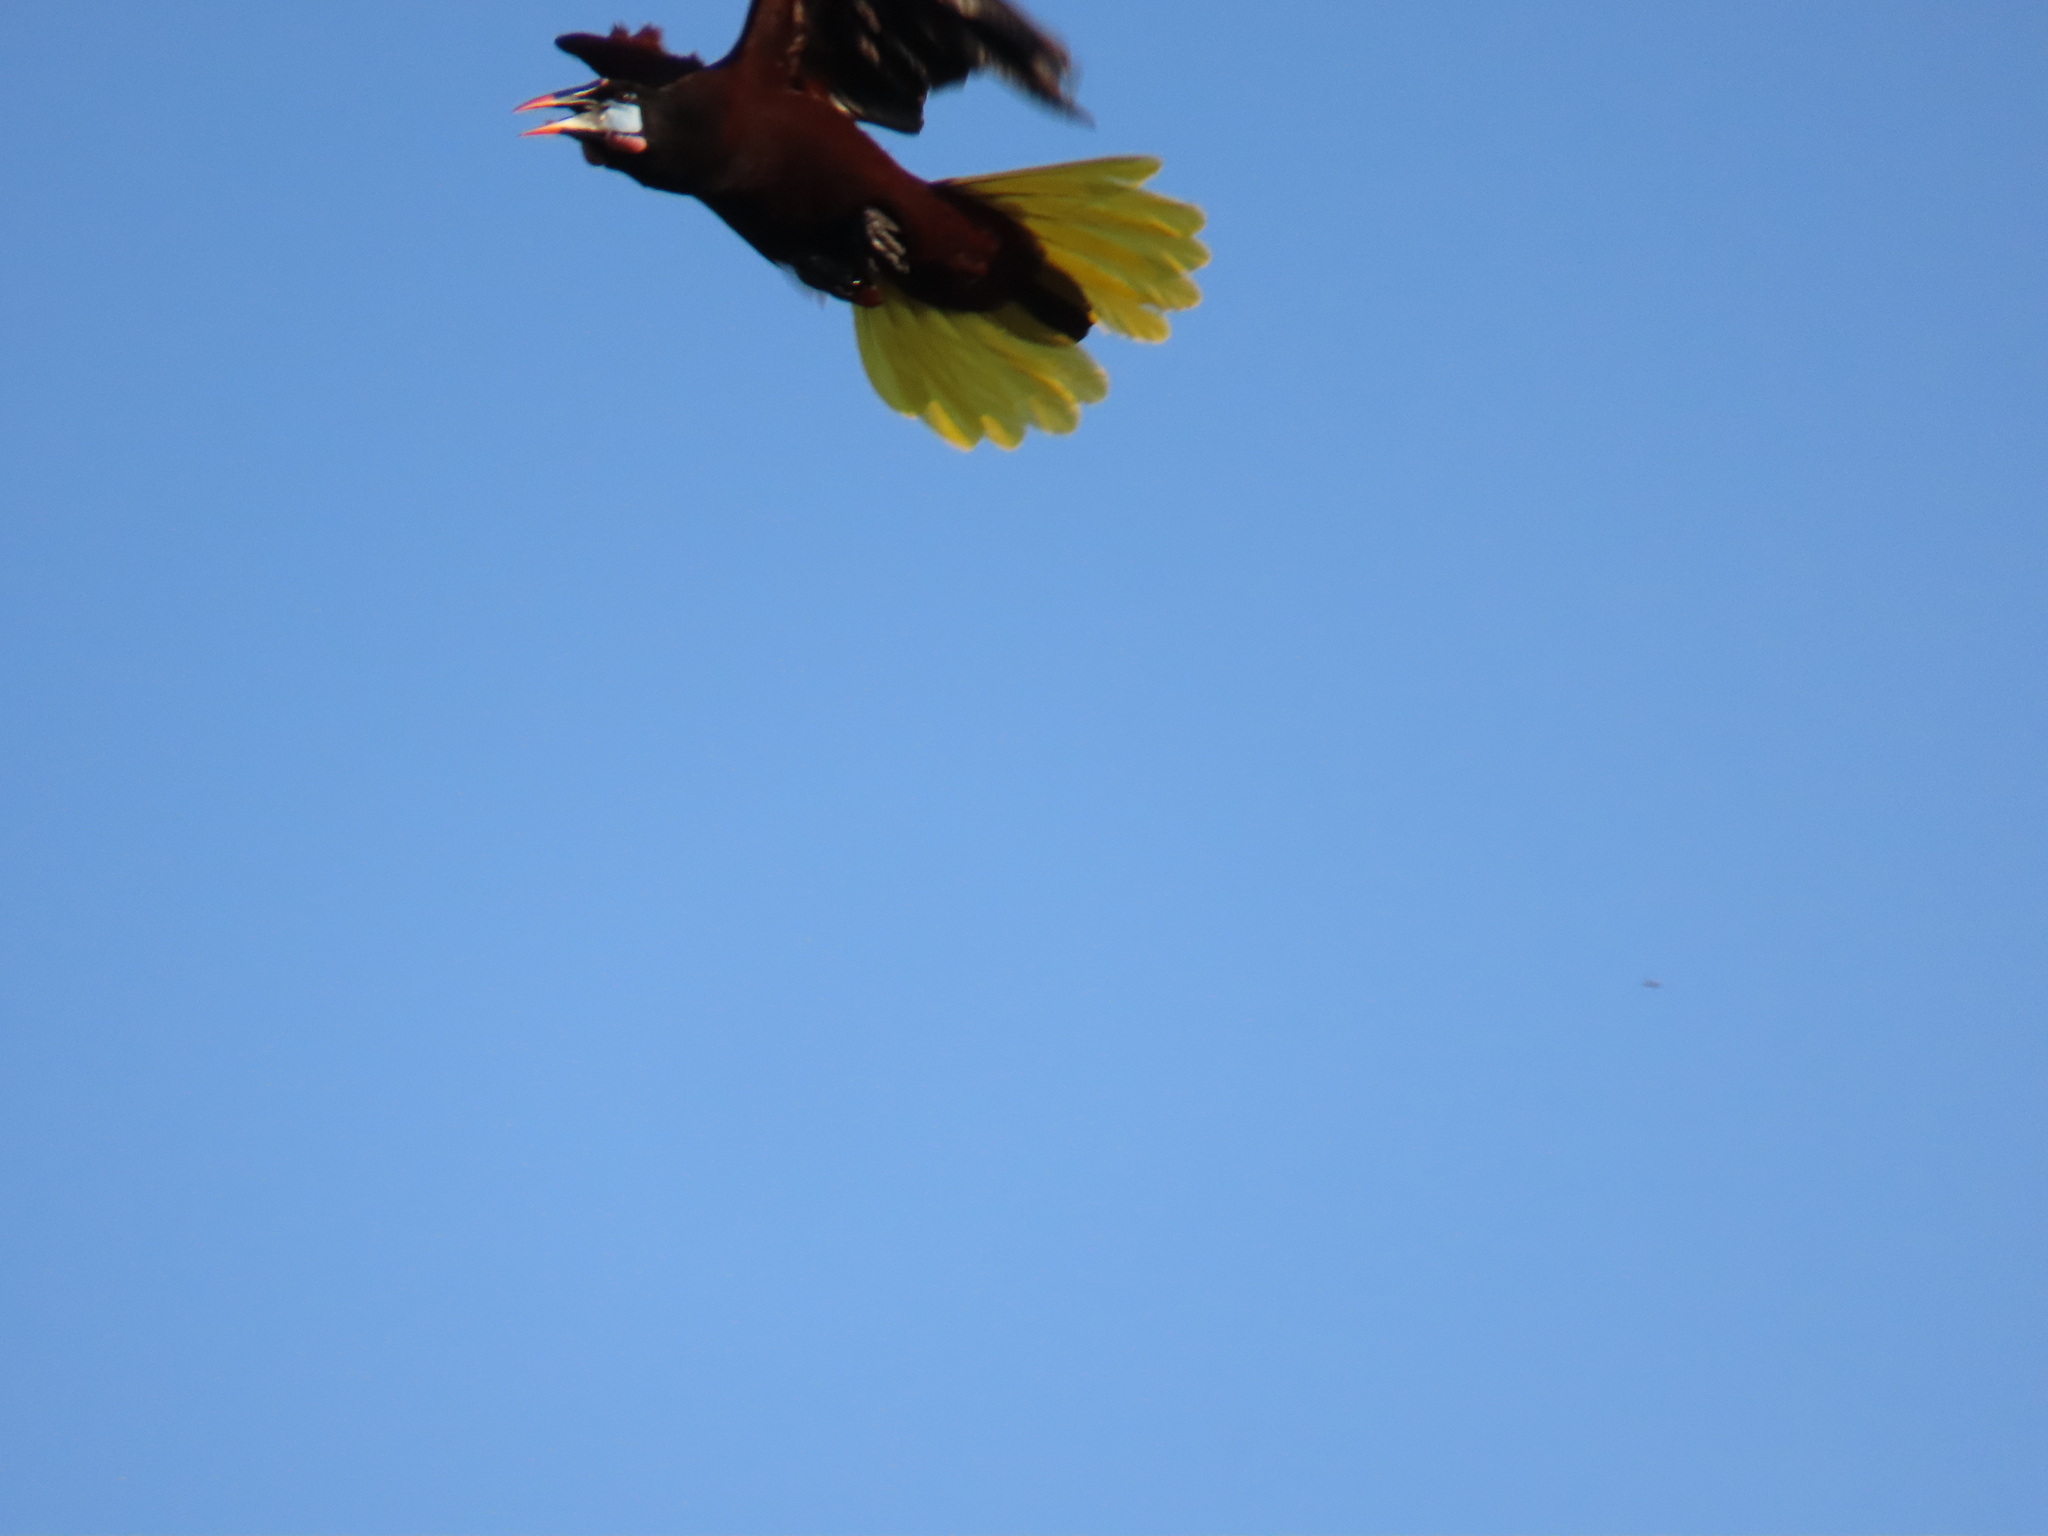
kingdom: Animalia
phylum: Chordata
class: Aves
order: Passeriformes
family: Icteridae
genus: Psarocolius
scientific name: Psarocolius montezuma
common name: Montezuma oropendola
